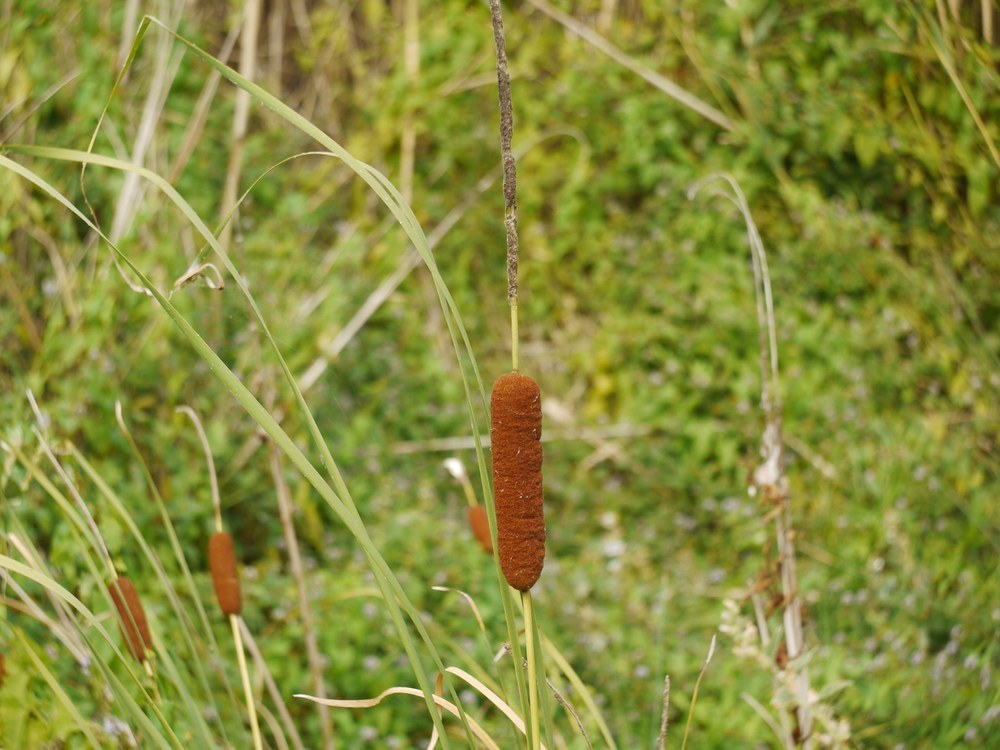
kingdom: Plantae
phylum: Tracheophyta
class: Liliopsida
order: Poales
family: Typhaceae
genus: Typha
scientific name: Typha angustifolia
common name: Lesser bulrush
